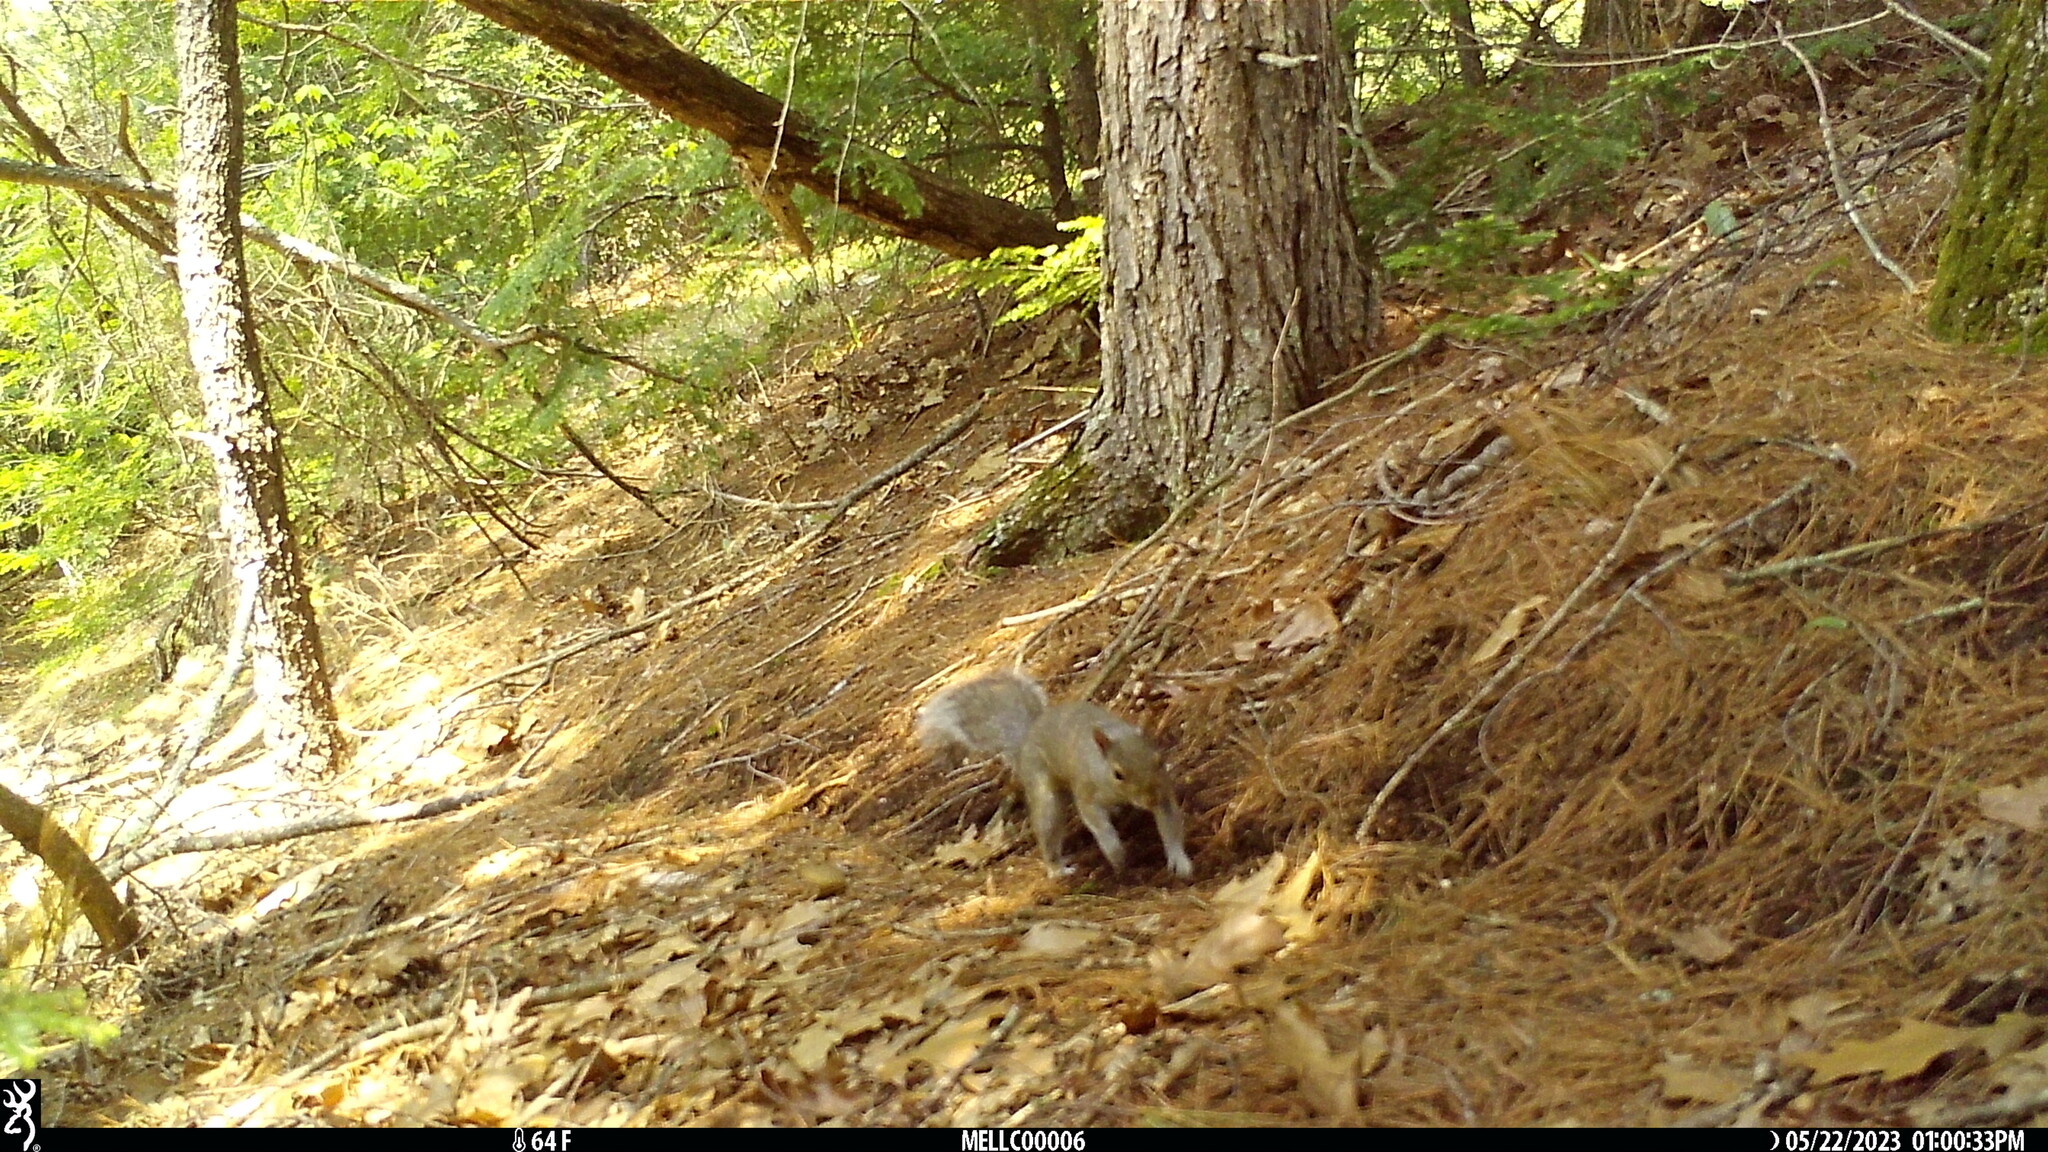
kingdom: Animalia
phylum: Chordata
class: Mammalia
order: Rodentia
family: Sciuridae
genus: Sciurus
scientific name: Sciurus carolinensis
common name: Eastern gray squirrel
